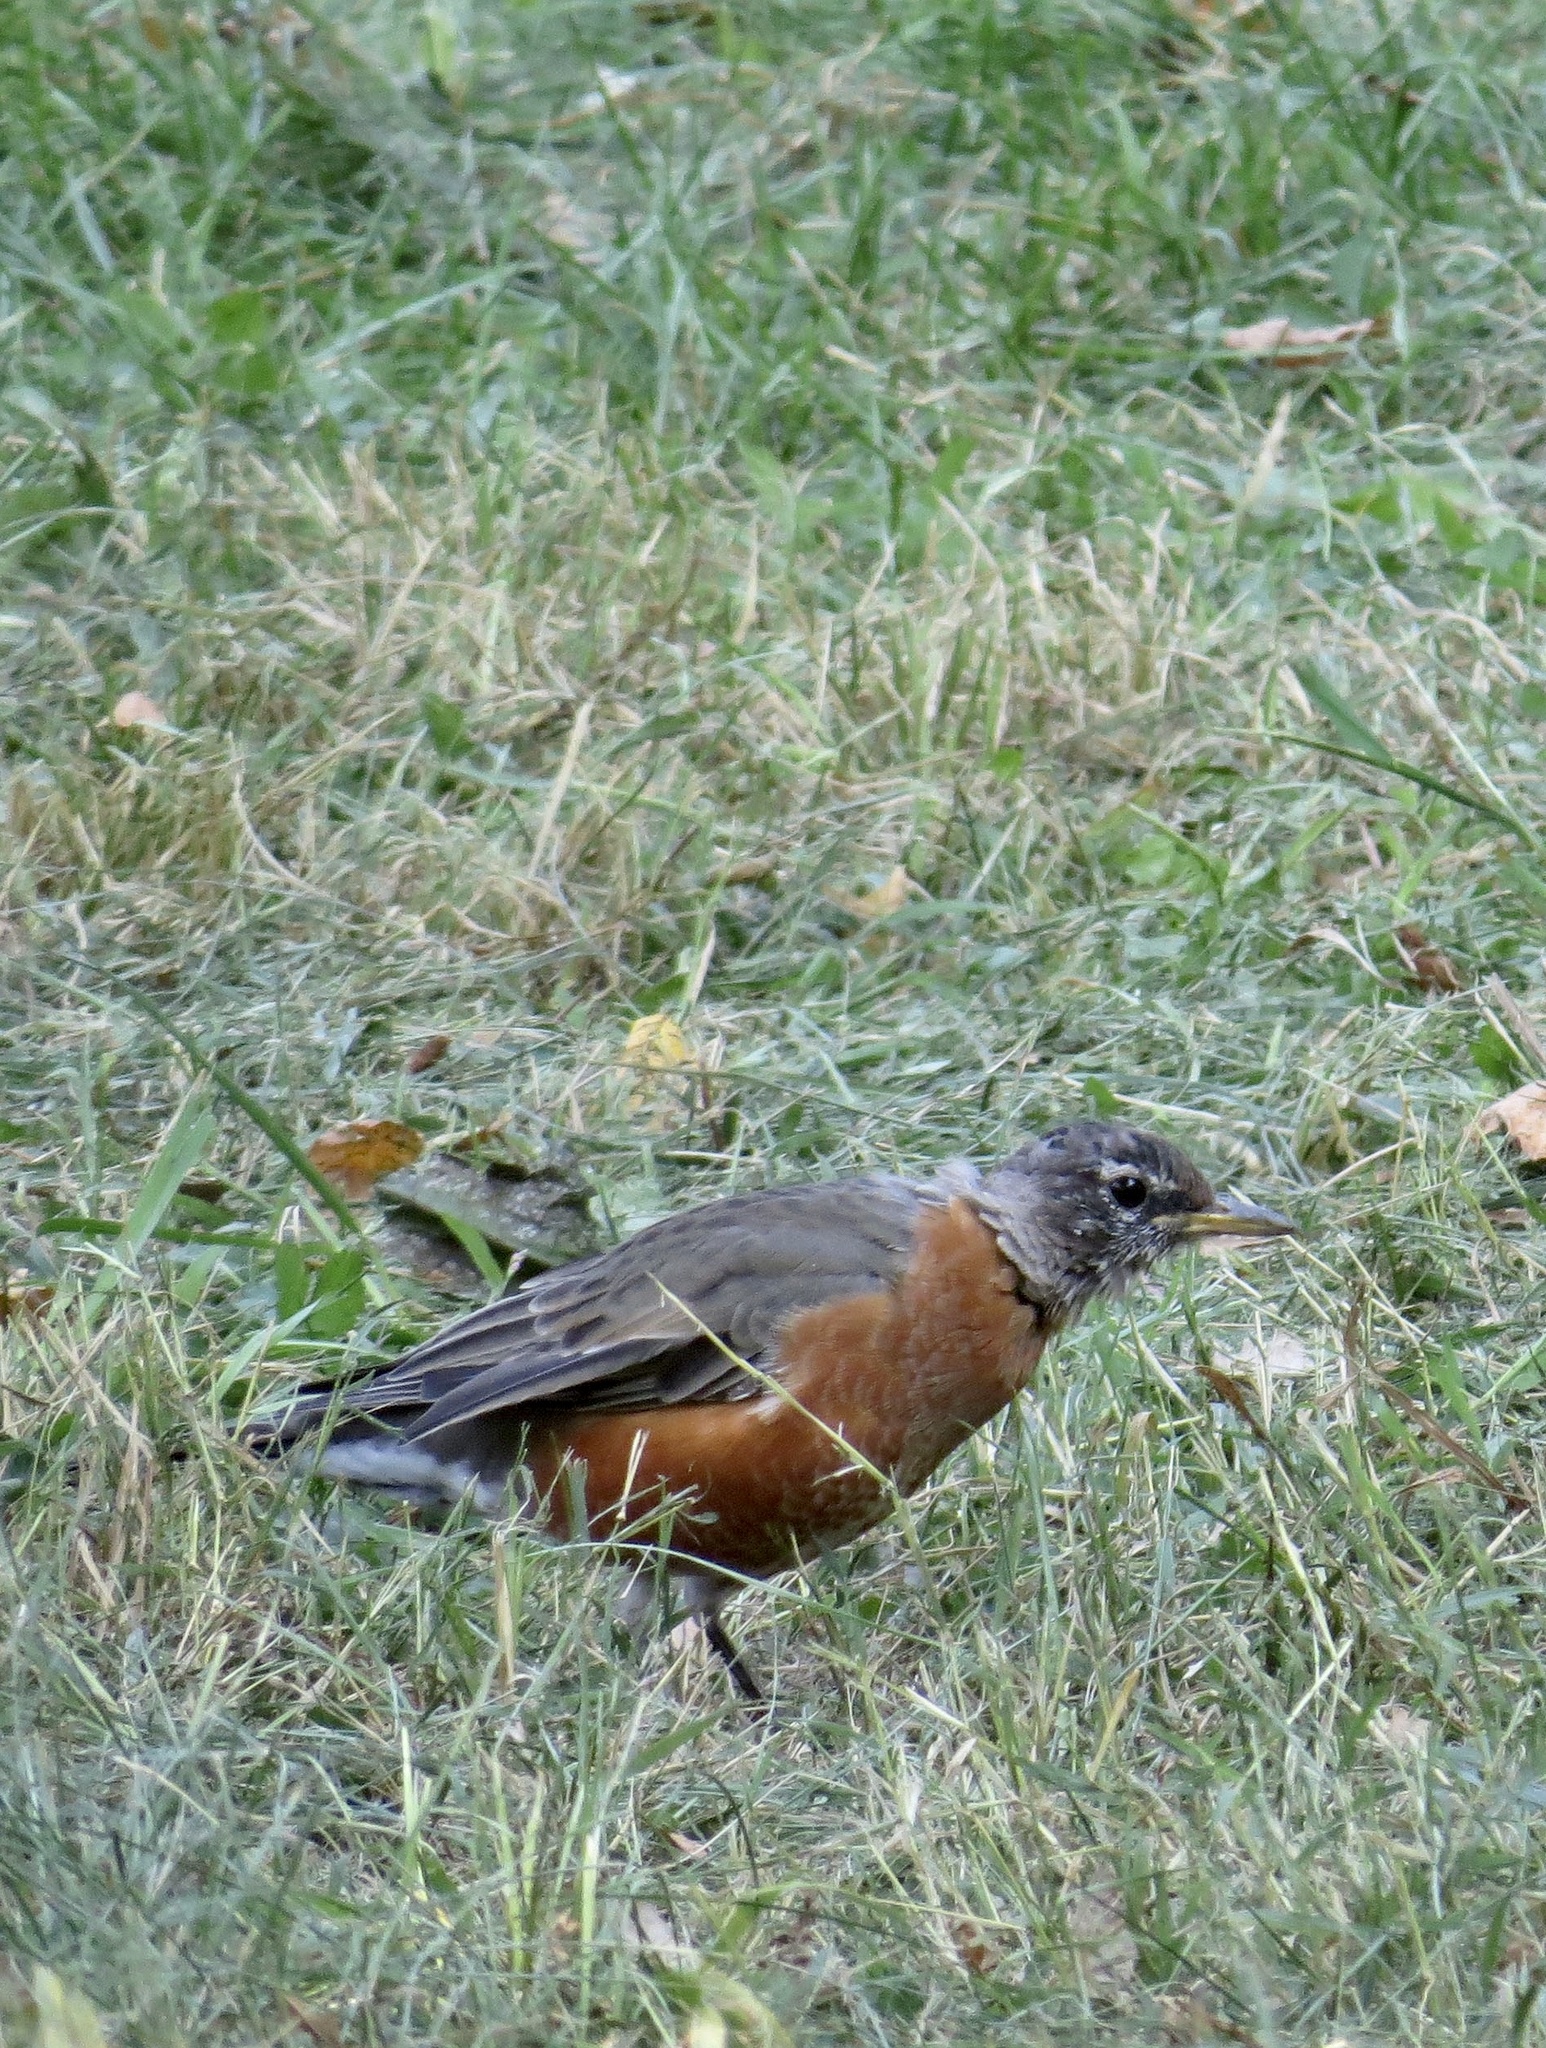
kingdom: Animalia
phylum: Chordata
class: Aves
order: Passeriformes
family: Turdidae
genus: Turdus
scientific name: Turdus migratorius
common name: American robin
